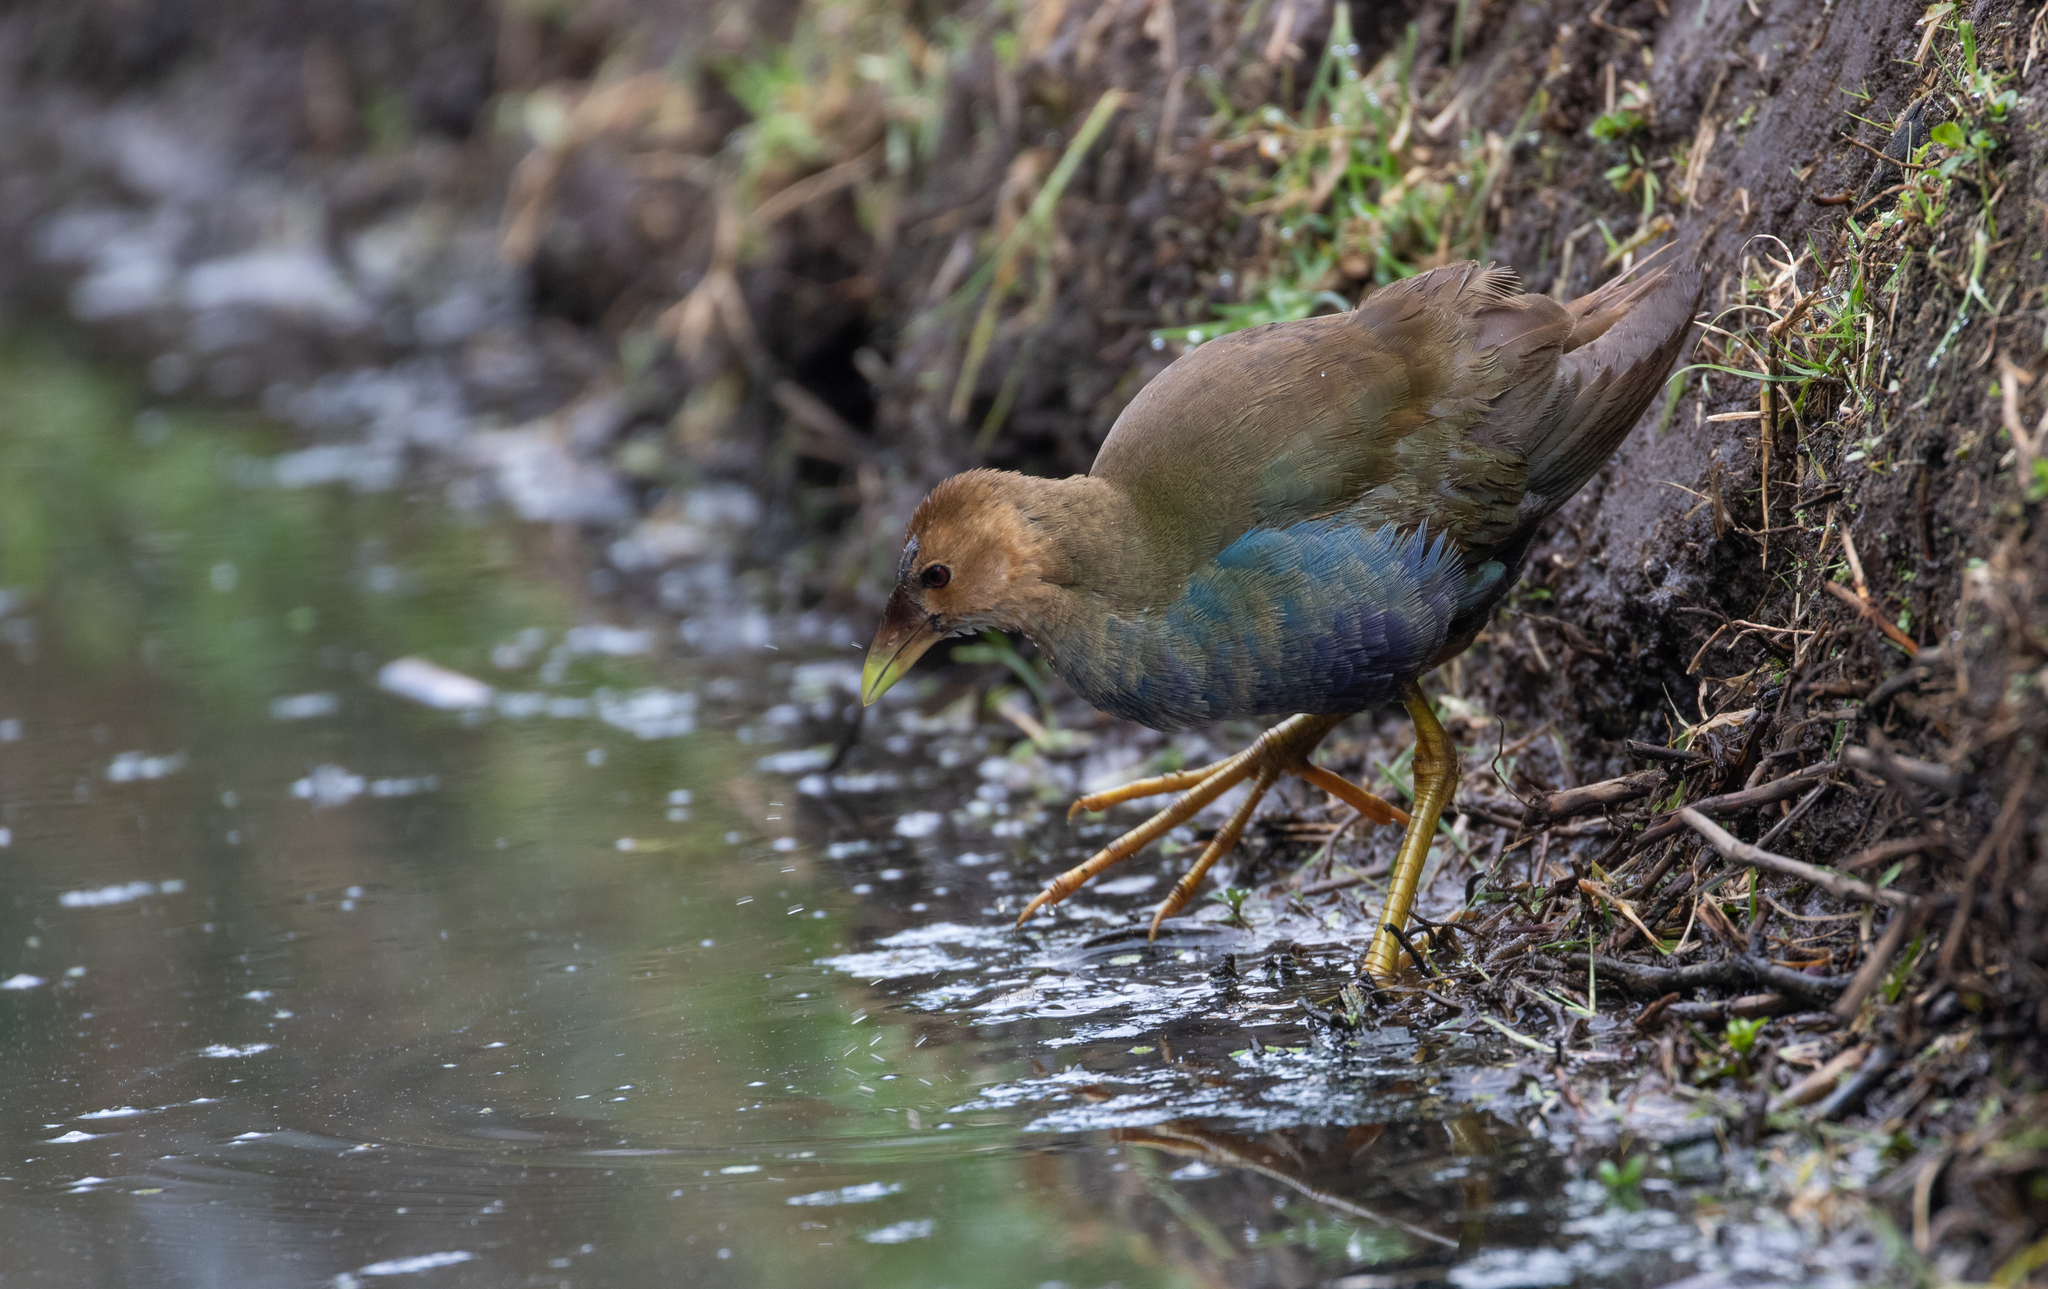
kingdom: Animalia
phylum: Chordata
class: Aves
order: Gruiformes
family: Rallidae
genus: Porphyrio
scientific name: Porphyrio martinica
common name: Purple gallinule
